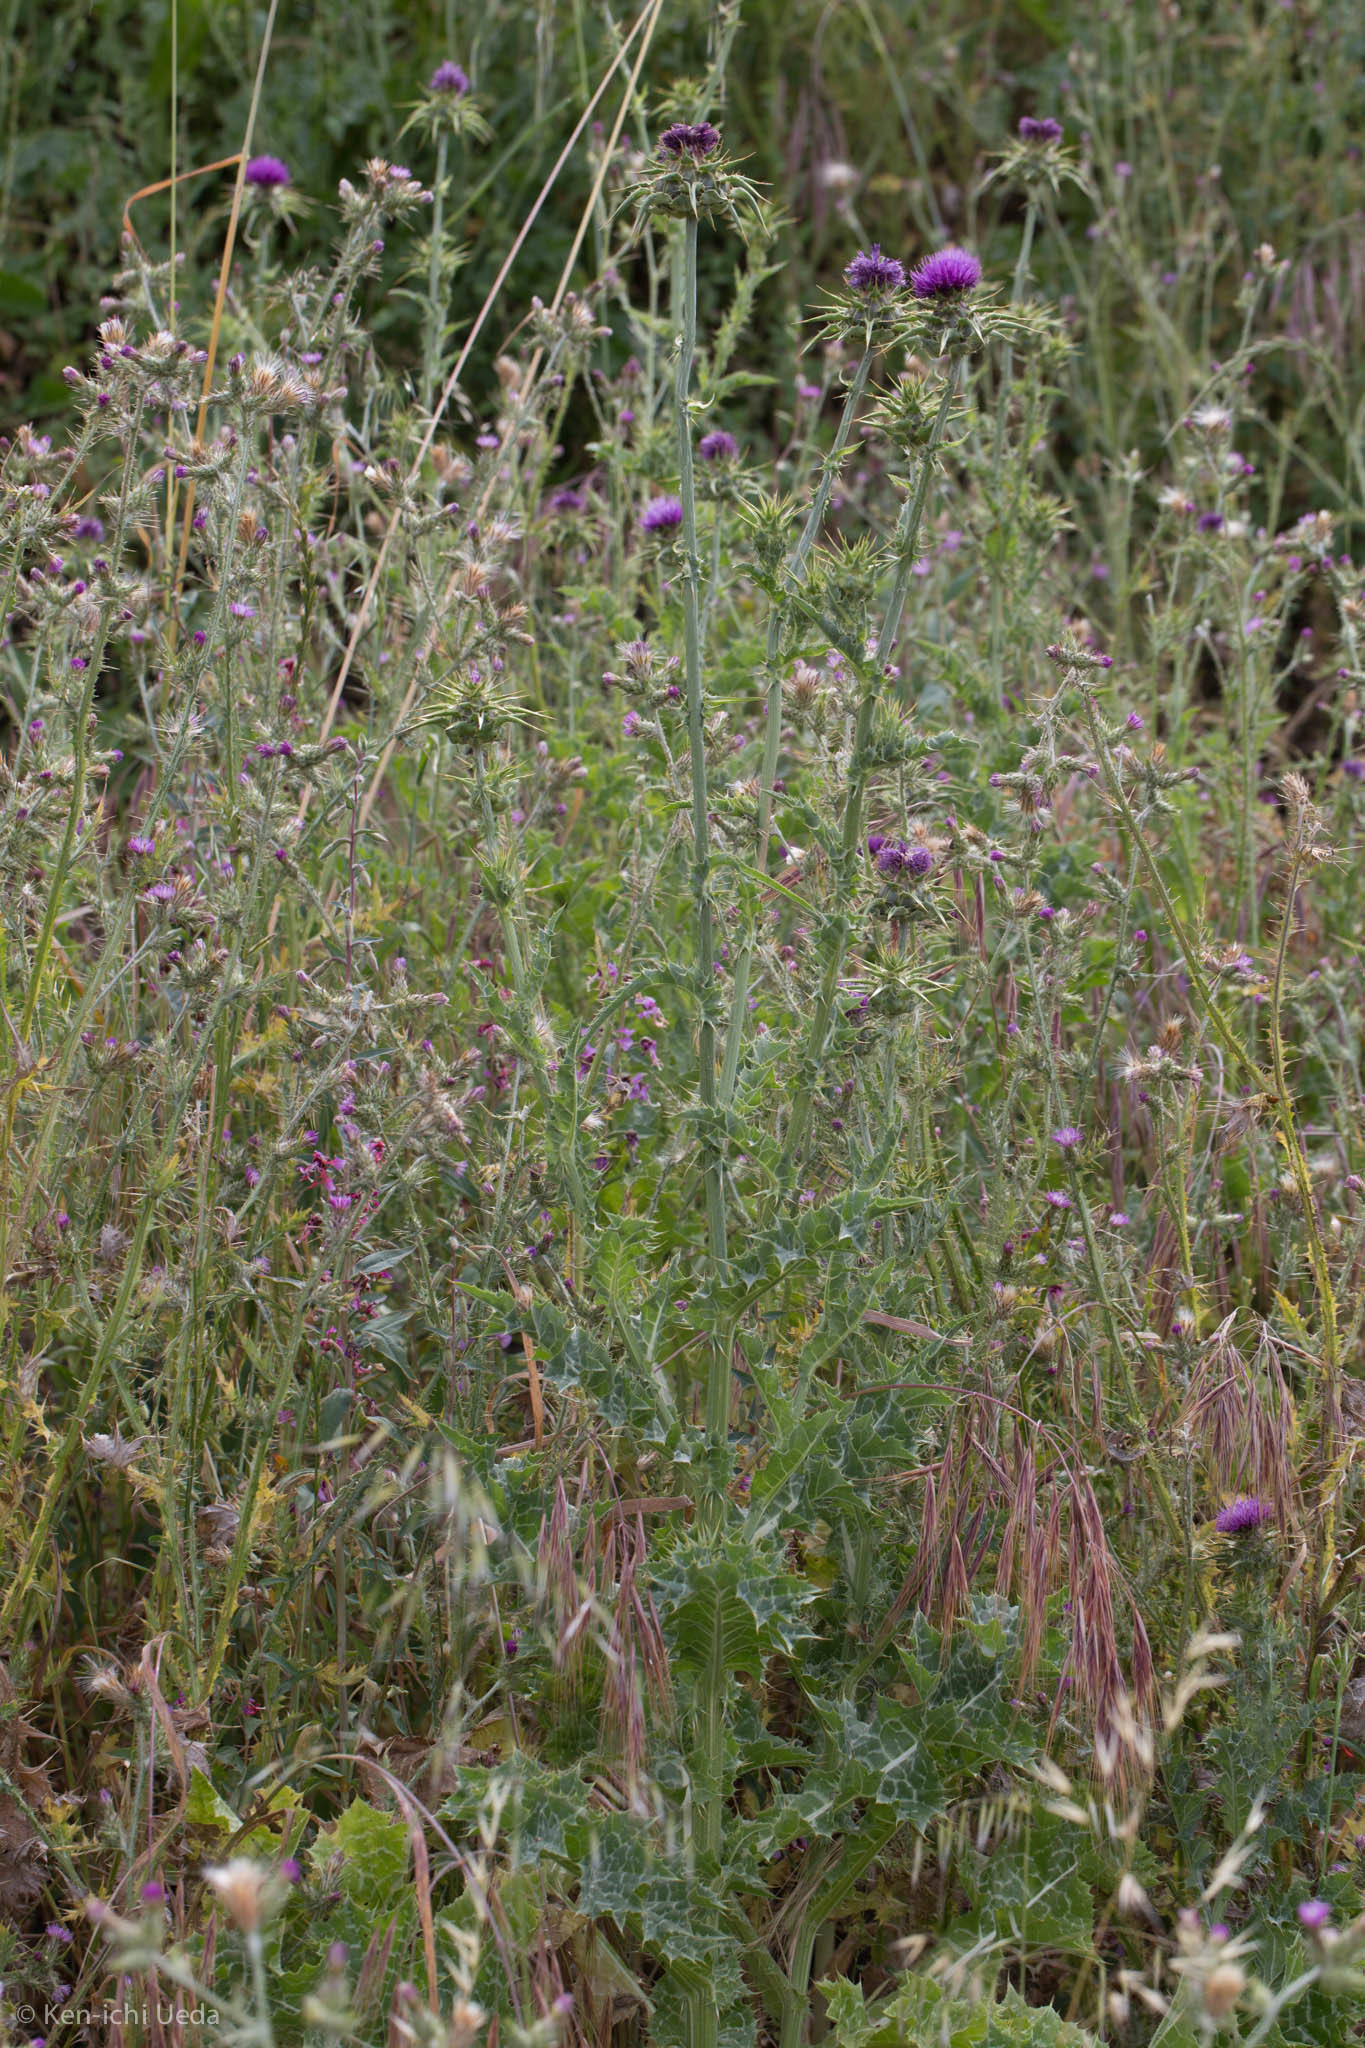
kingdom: Plantae
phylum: Tracheophyta
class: Magnoliopsida
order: Asterales
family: Asteraceae
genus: Silybum
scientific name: Silybum marianum
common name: Milk thistle
